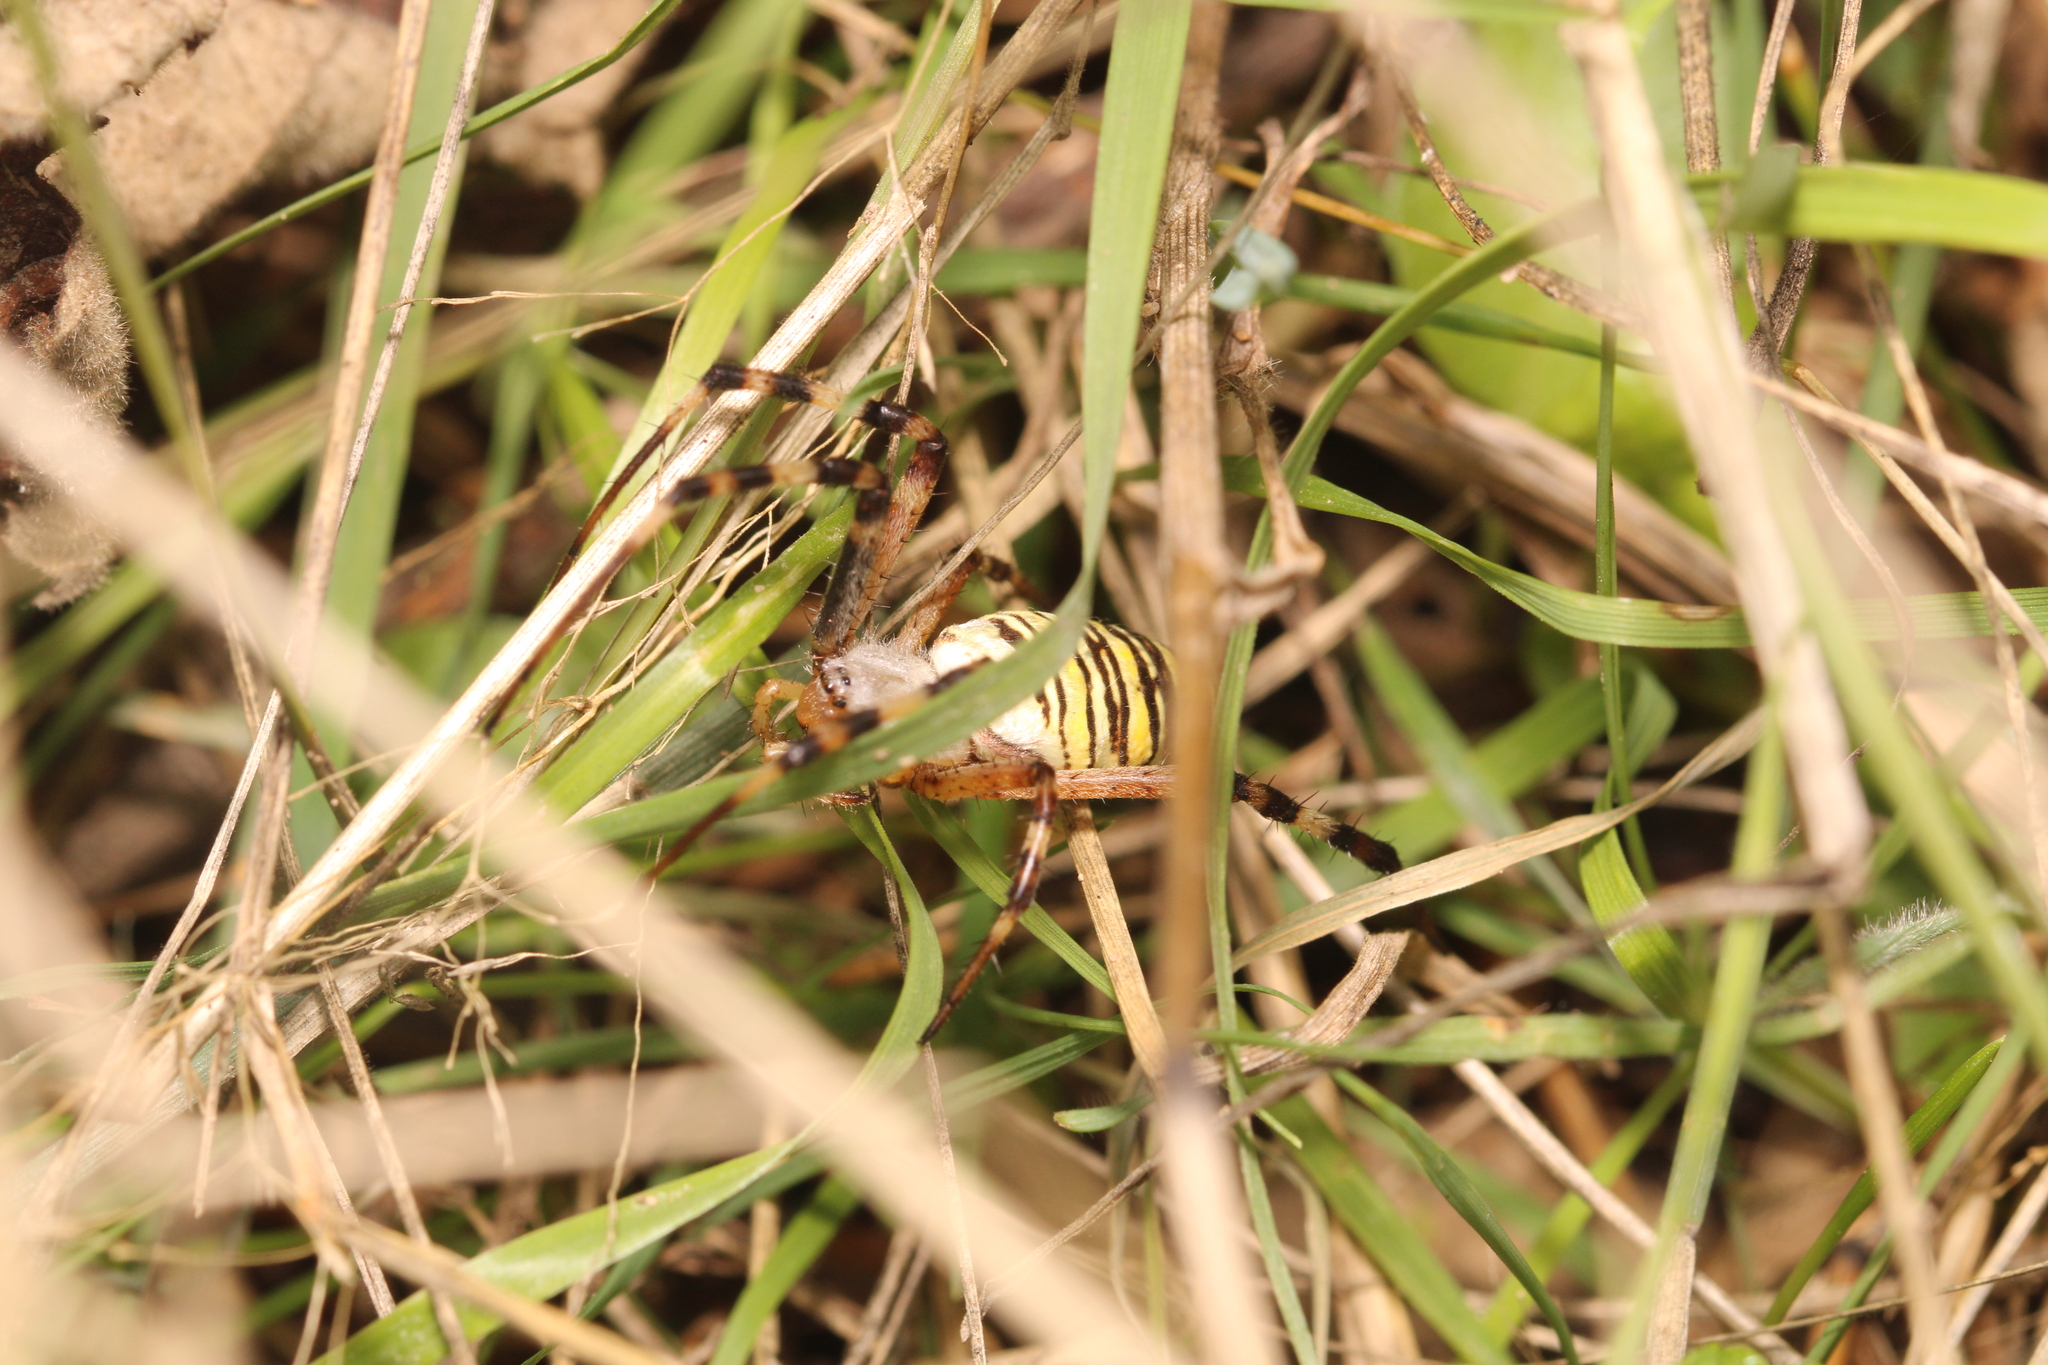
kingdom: Animalia
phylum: Arthropoda
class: Arachnida
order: Araneae
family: Araneidae
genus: Argiope
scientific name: Argiope bruennichi
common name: Wasp spider
